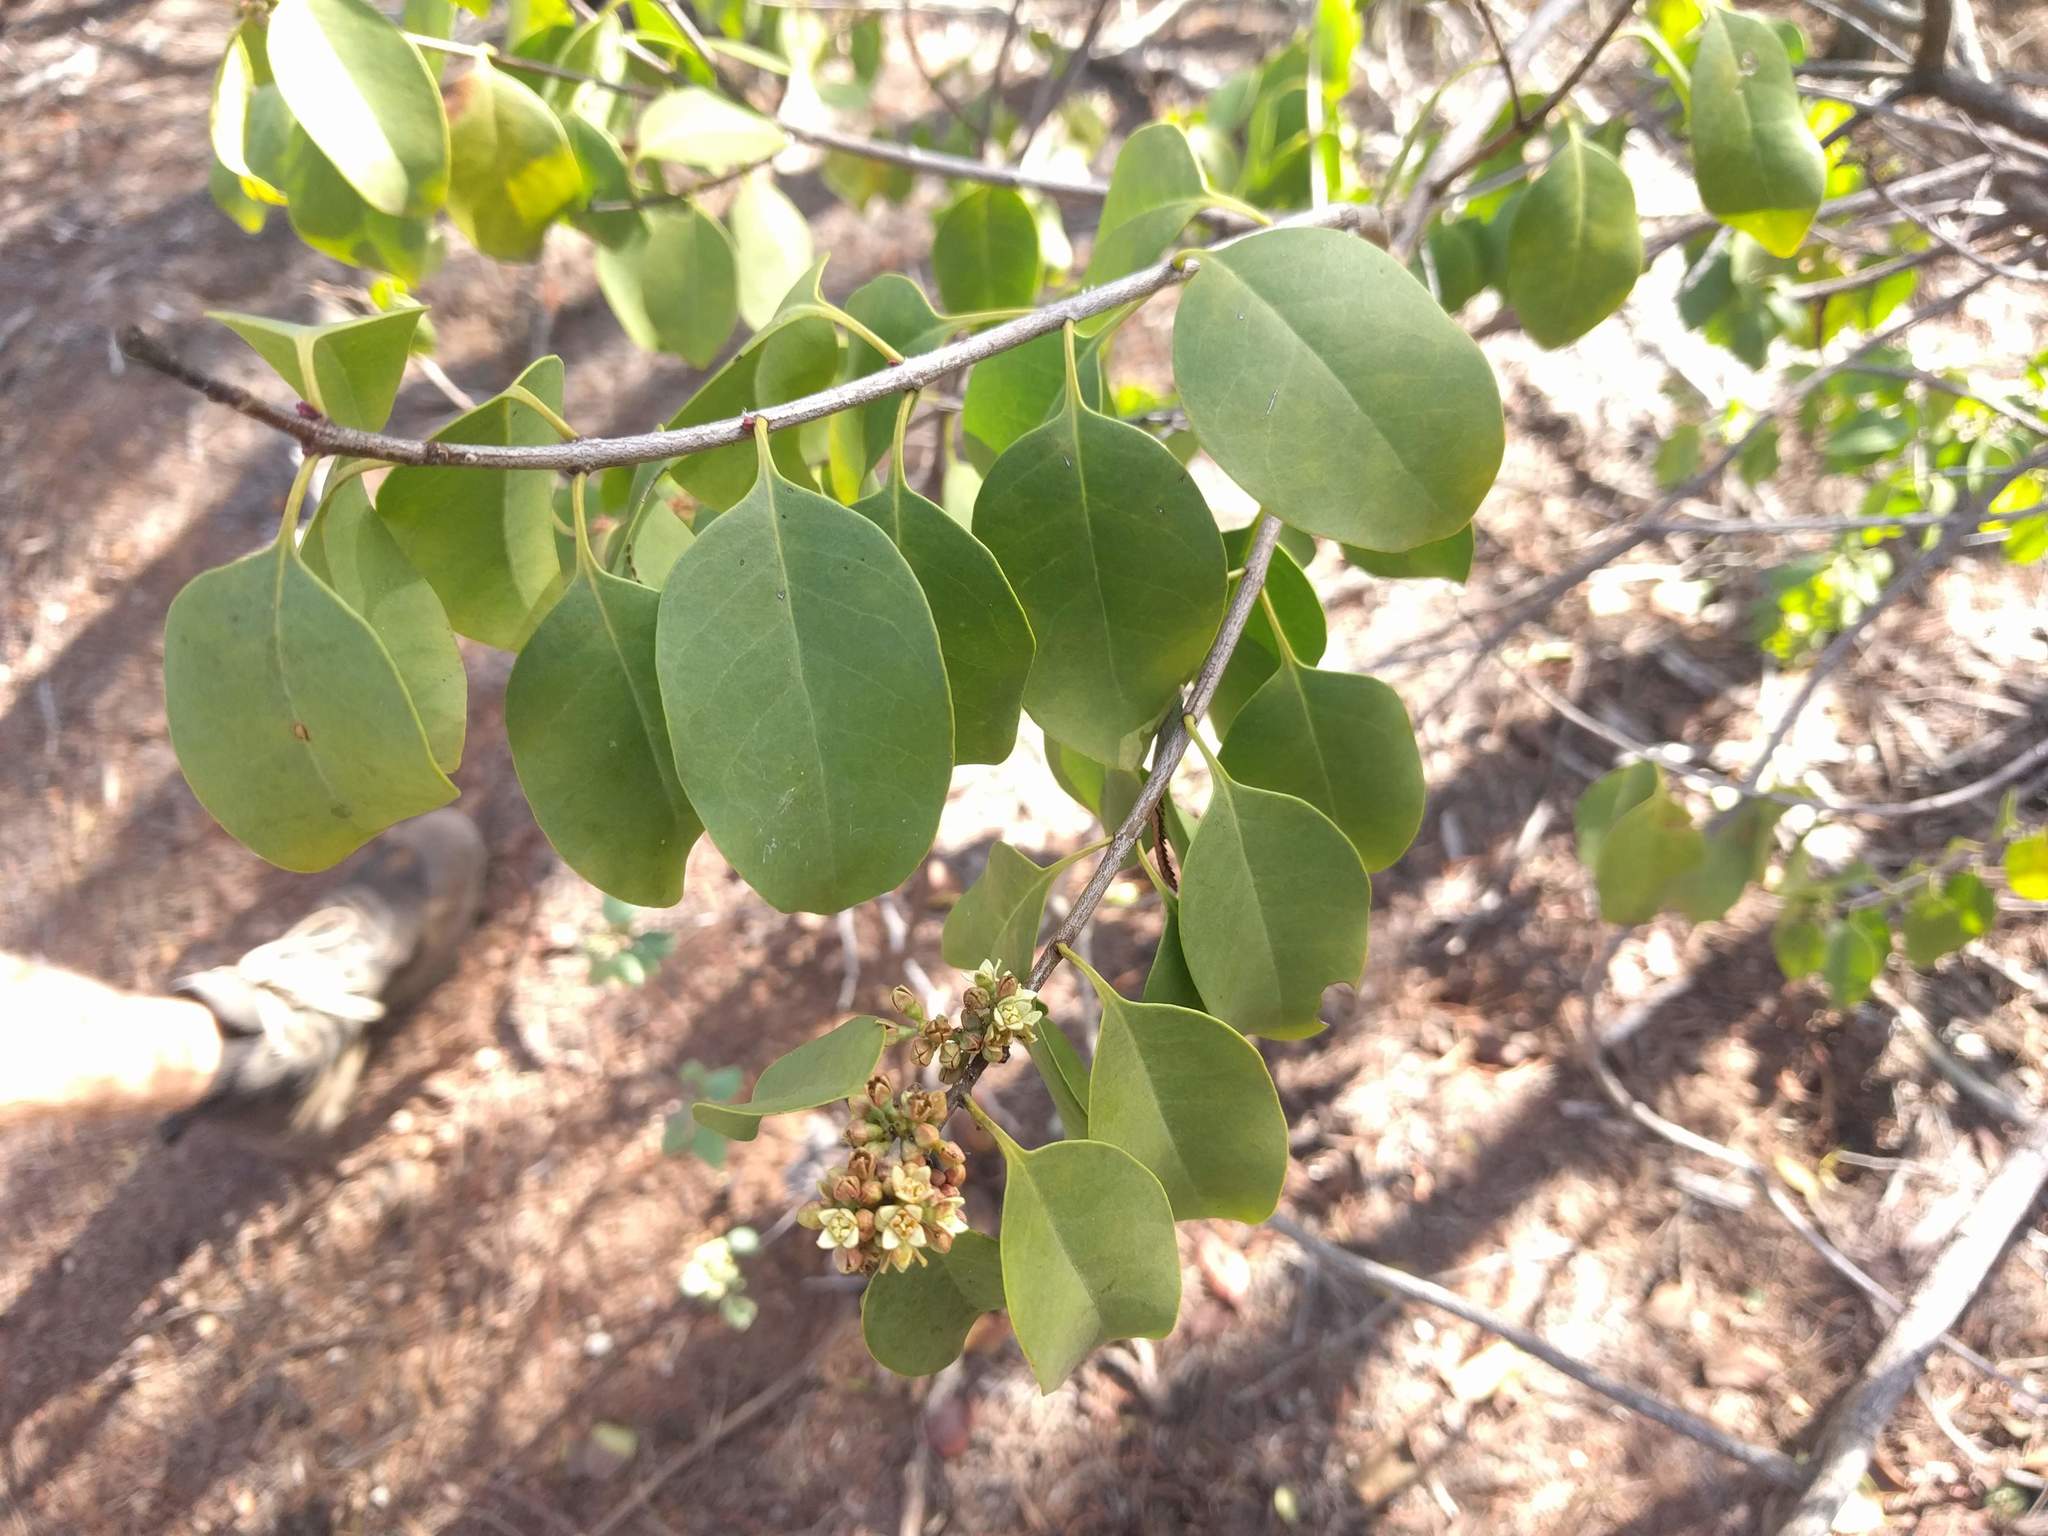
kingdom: Plantae
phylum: Tracheophyta
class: Magnoliopsida
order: Santalales
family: Santalaceae
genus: Santalum
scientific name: Santalum ellipticum
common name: Coast sandalwood
